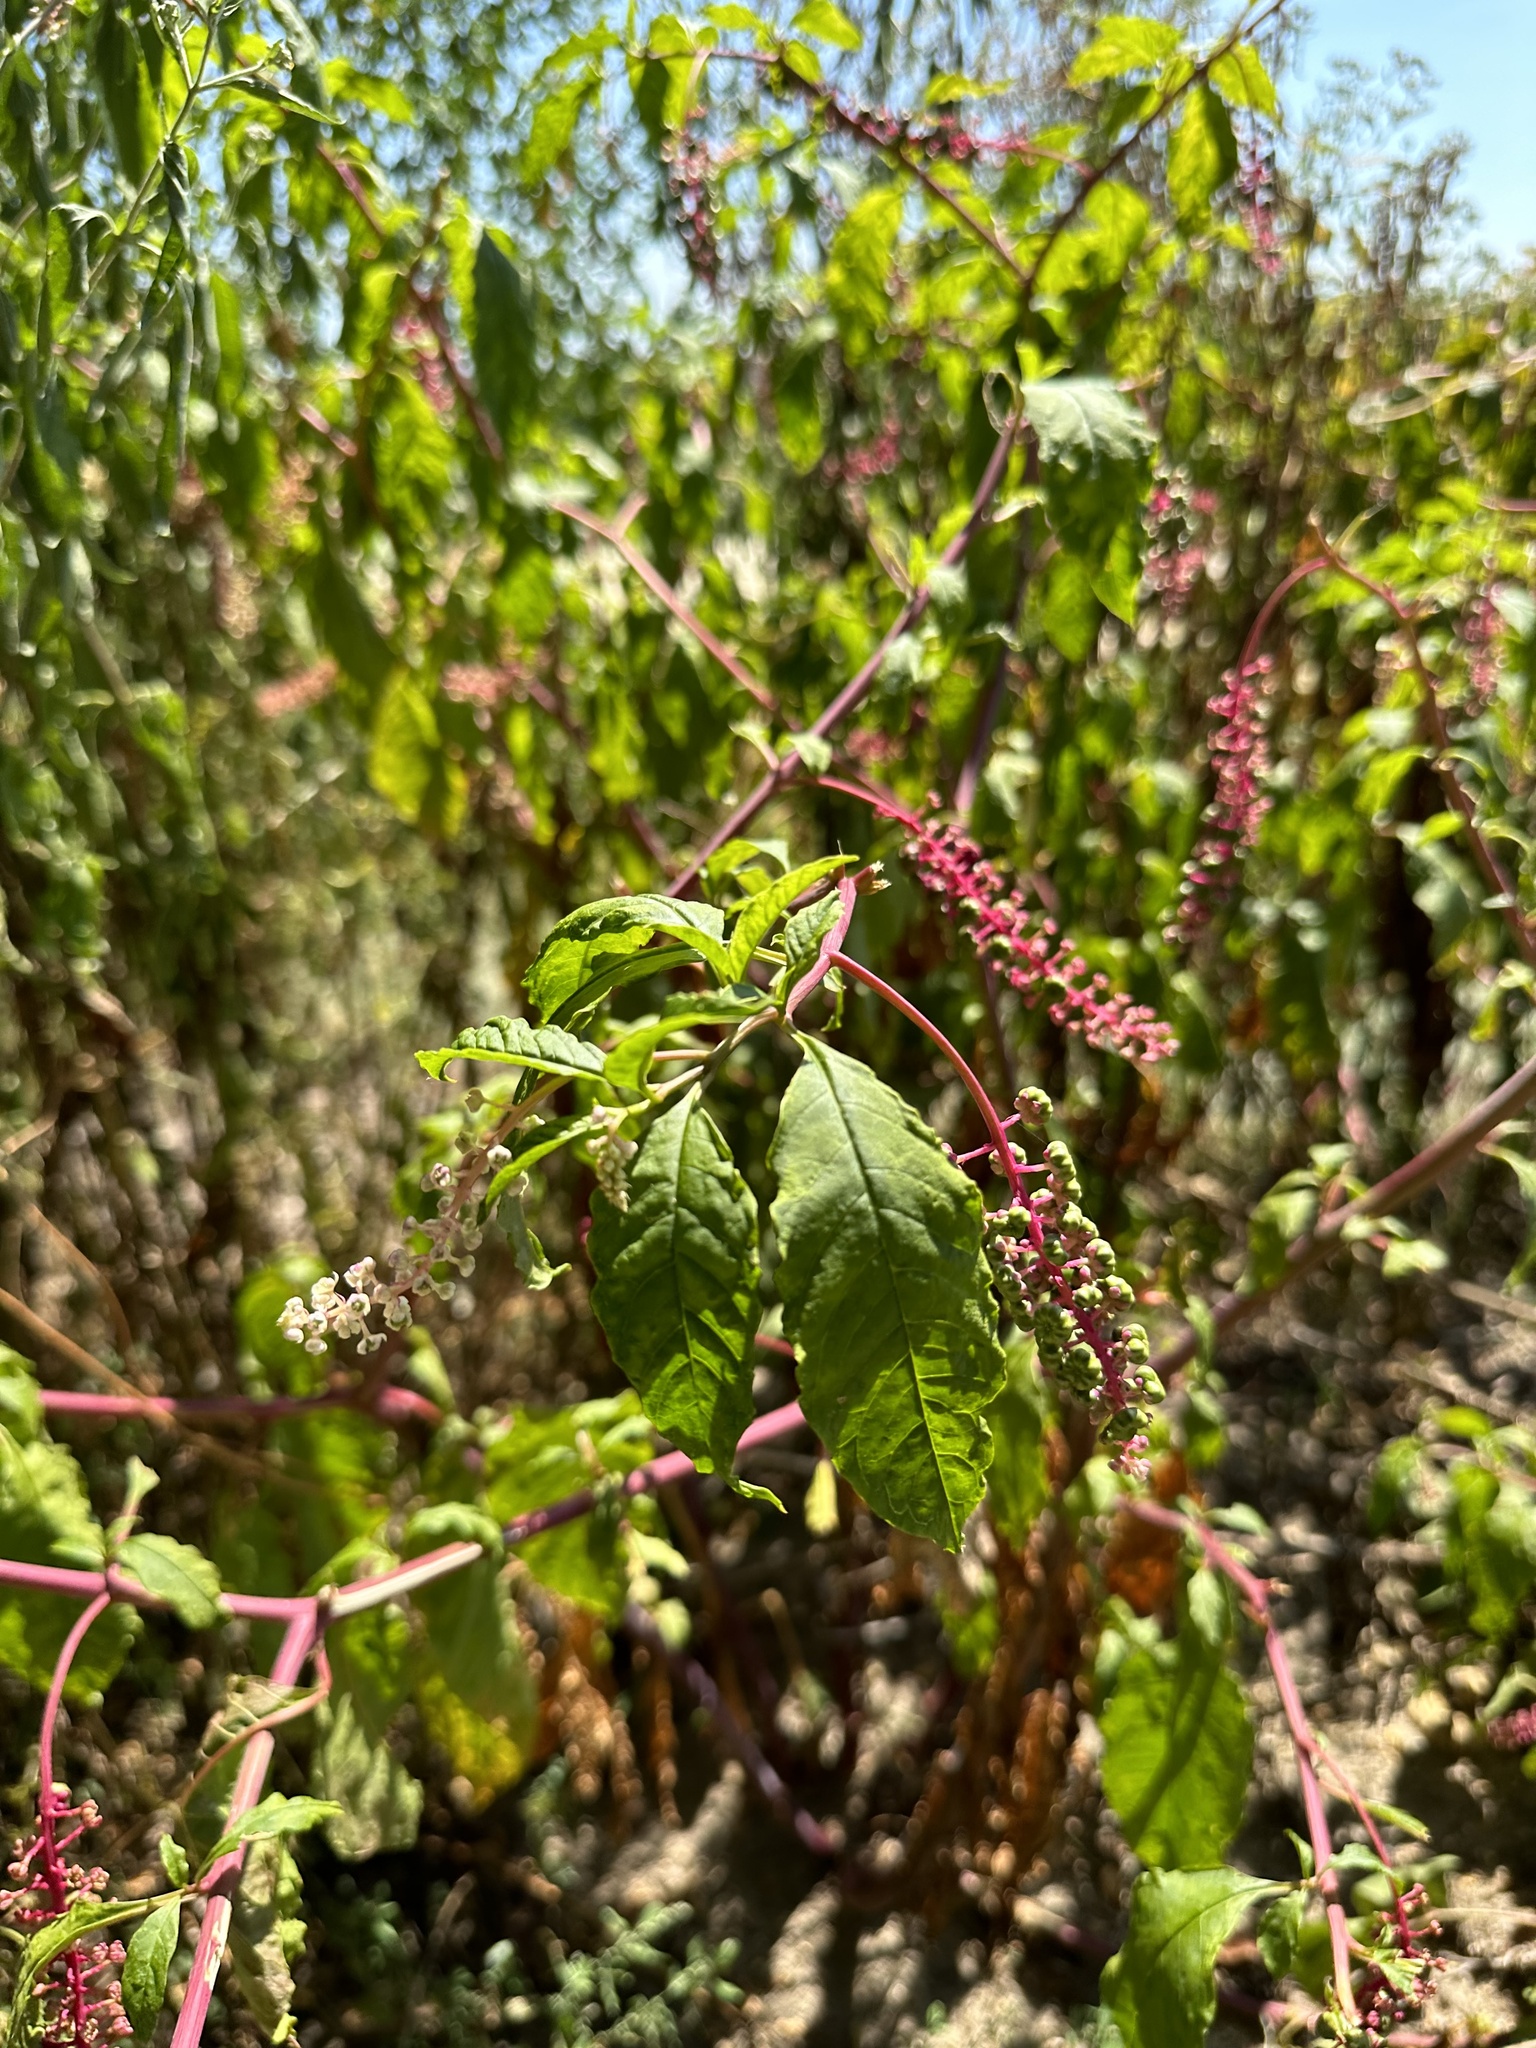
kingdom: Plantae
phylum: Tracheophyta
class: Magnoliopsida
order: Caryophyllales
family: Phytolaccaceae
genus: Phytolacca
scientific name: Phytolacca americana
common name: American pokeweed
